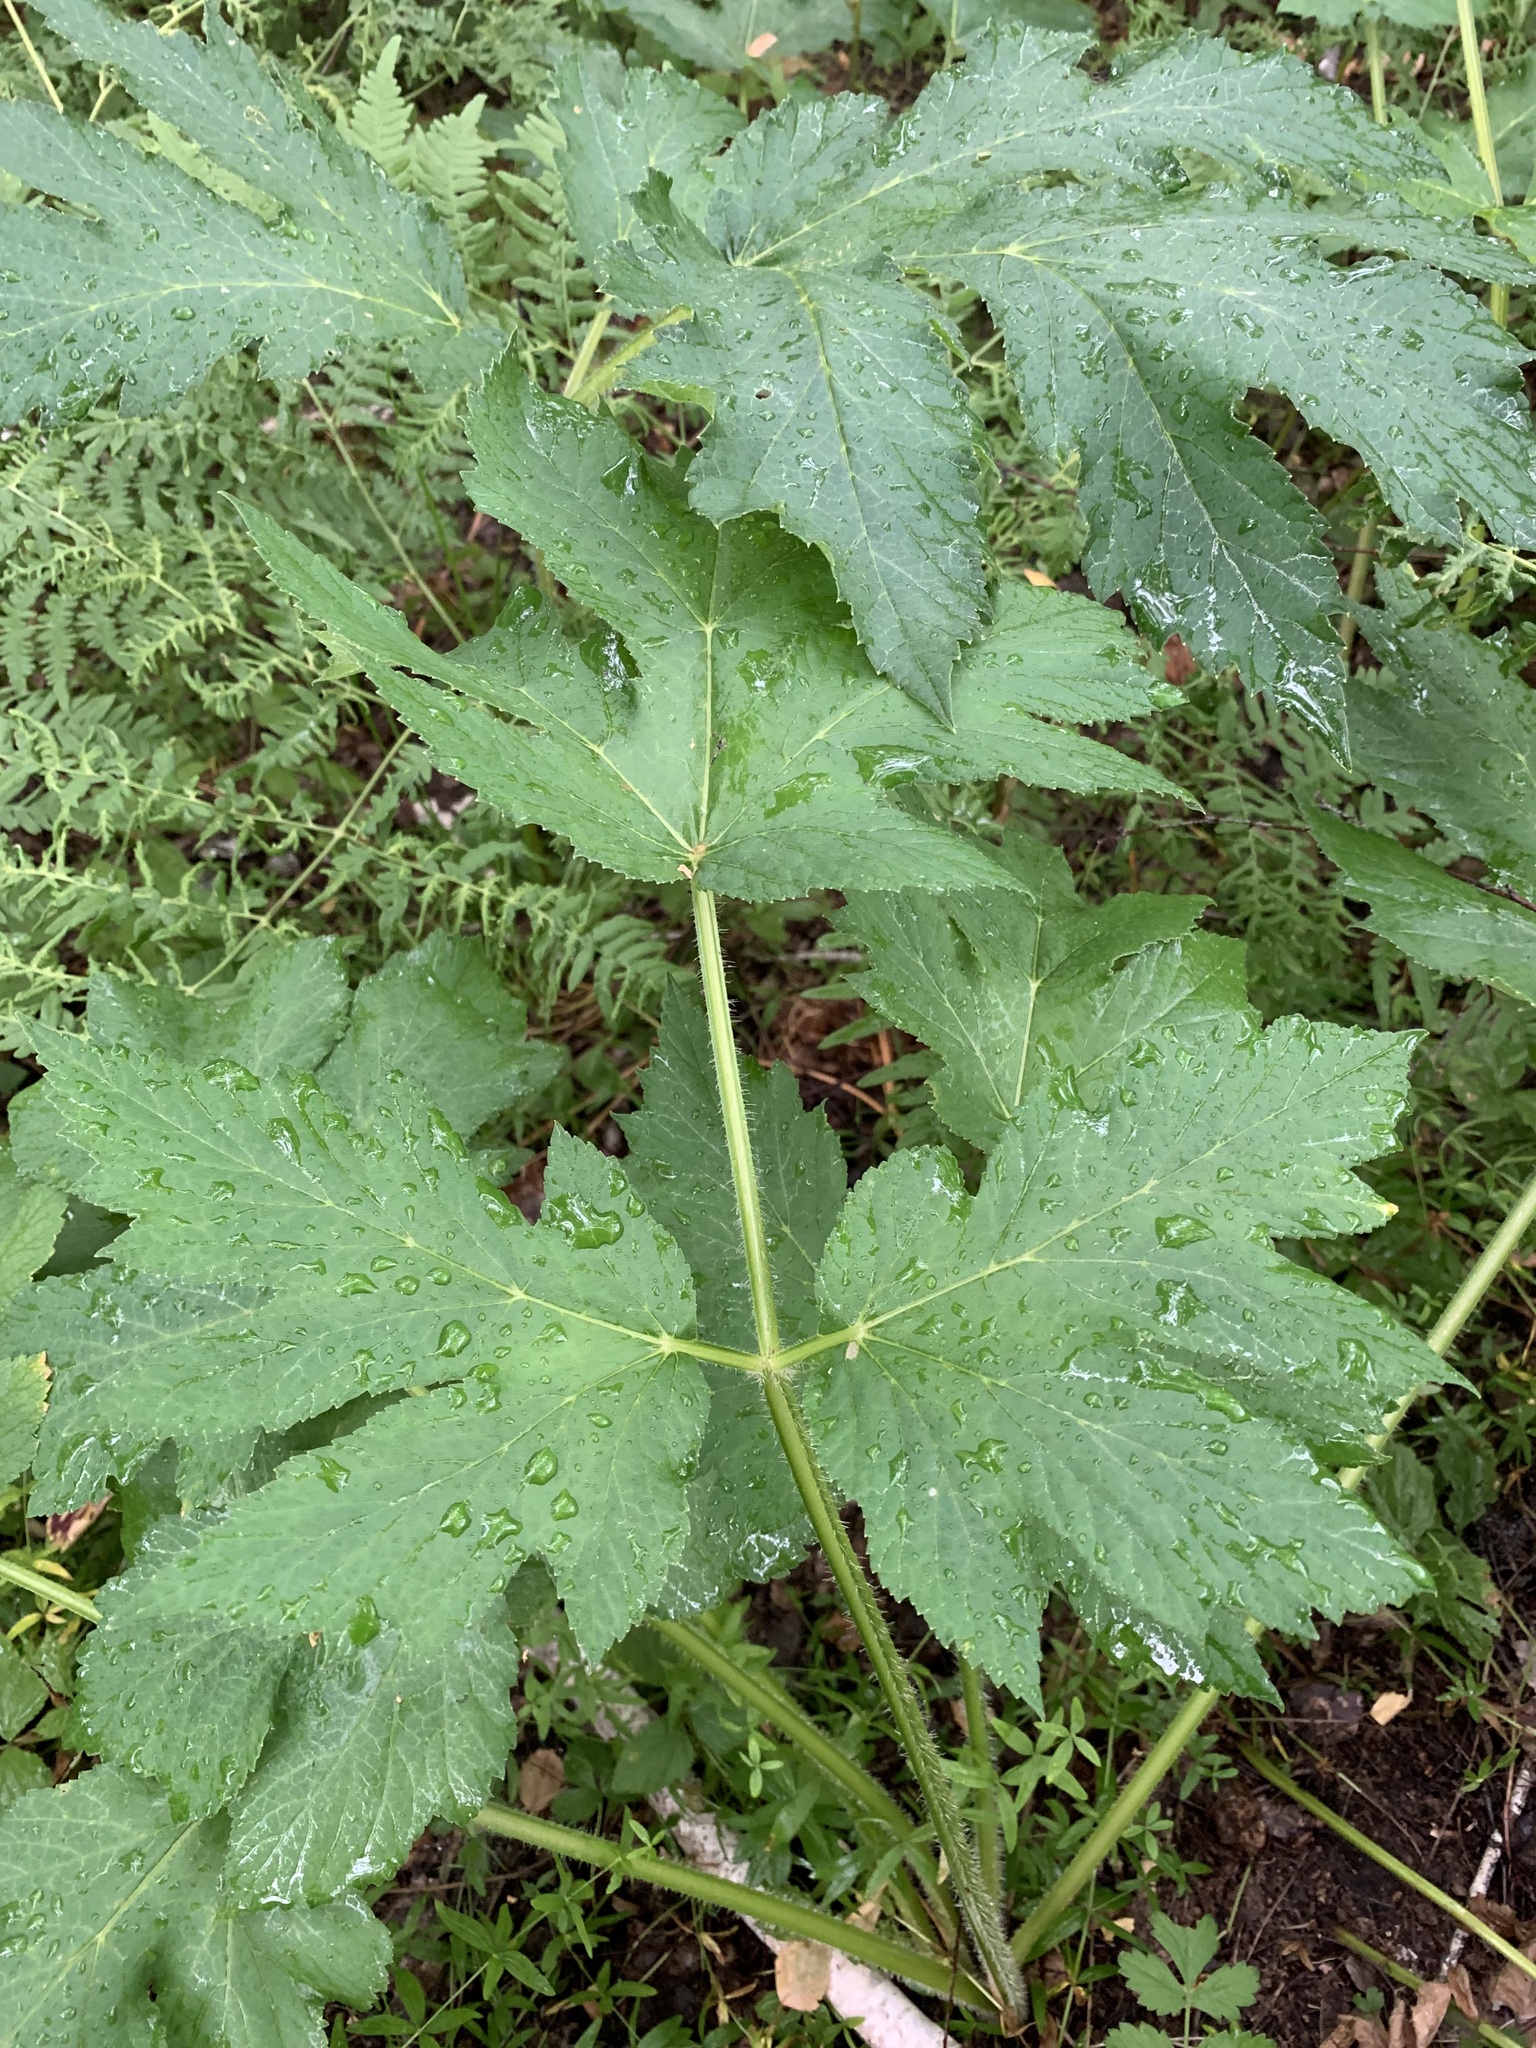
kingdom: Plantae
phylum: Tracheophyta
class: Magnoliopsida
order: Apiales
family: Apiaceae
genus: Heracleum
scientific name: Heracleum sphondylium
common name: Hogweed
